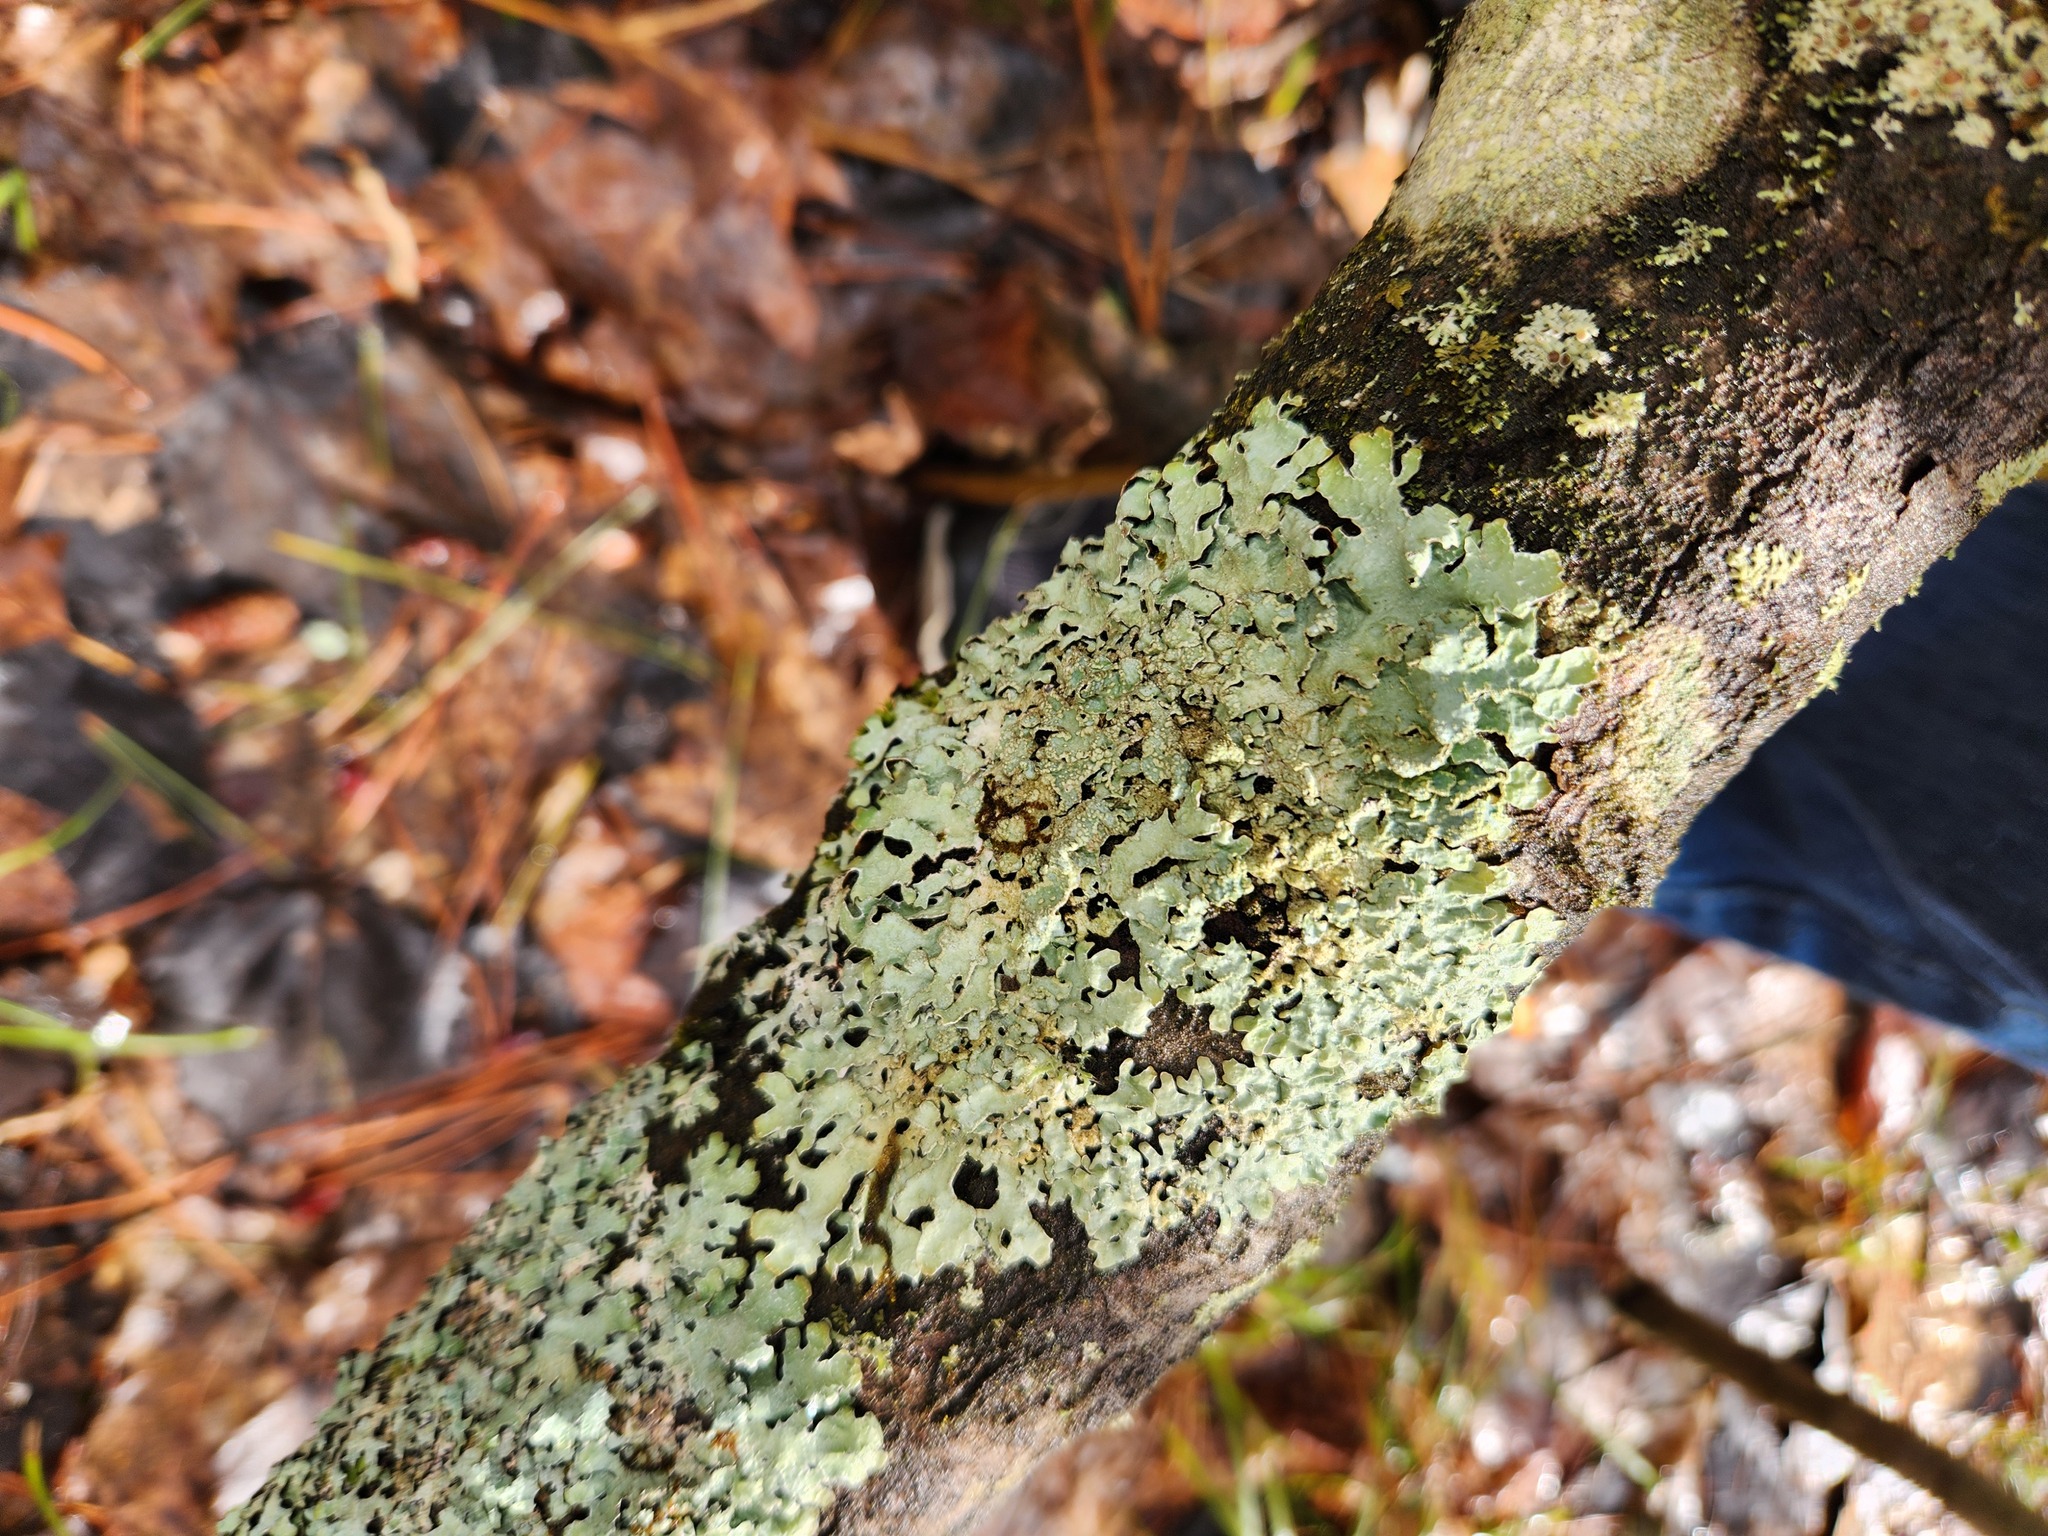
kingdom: Fungi
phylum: Ascomycota
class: Lecanoromycetes
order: Lecanorales
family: Parmeliaceae
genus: Parmelia
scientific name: Parmelia sulcata
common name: Netted shield lichen
